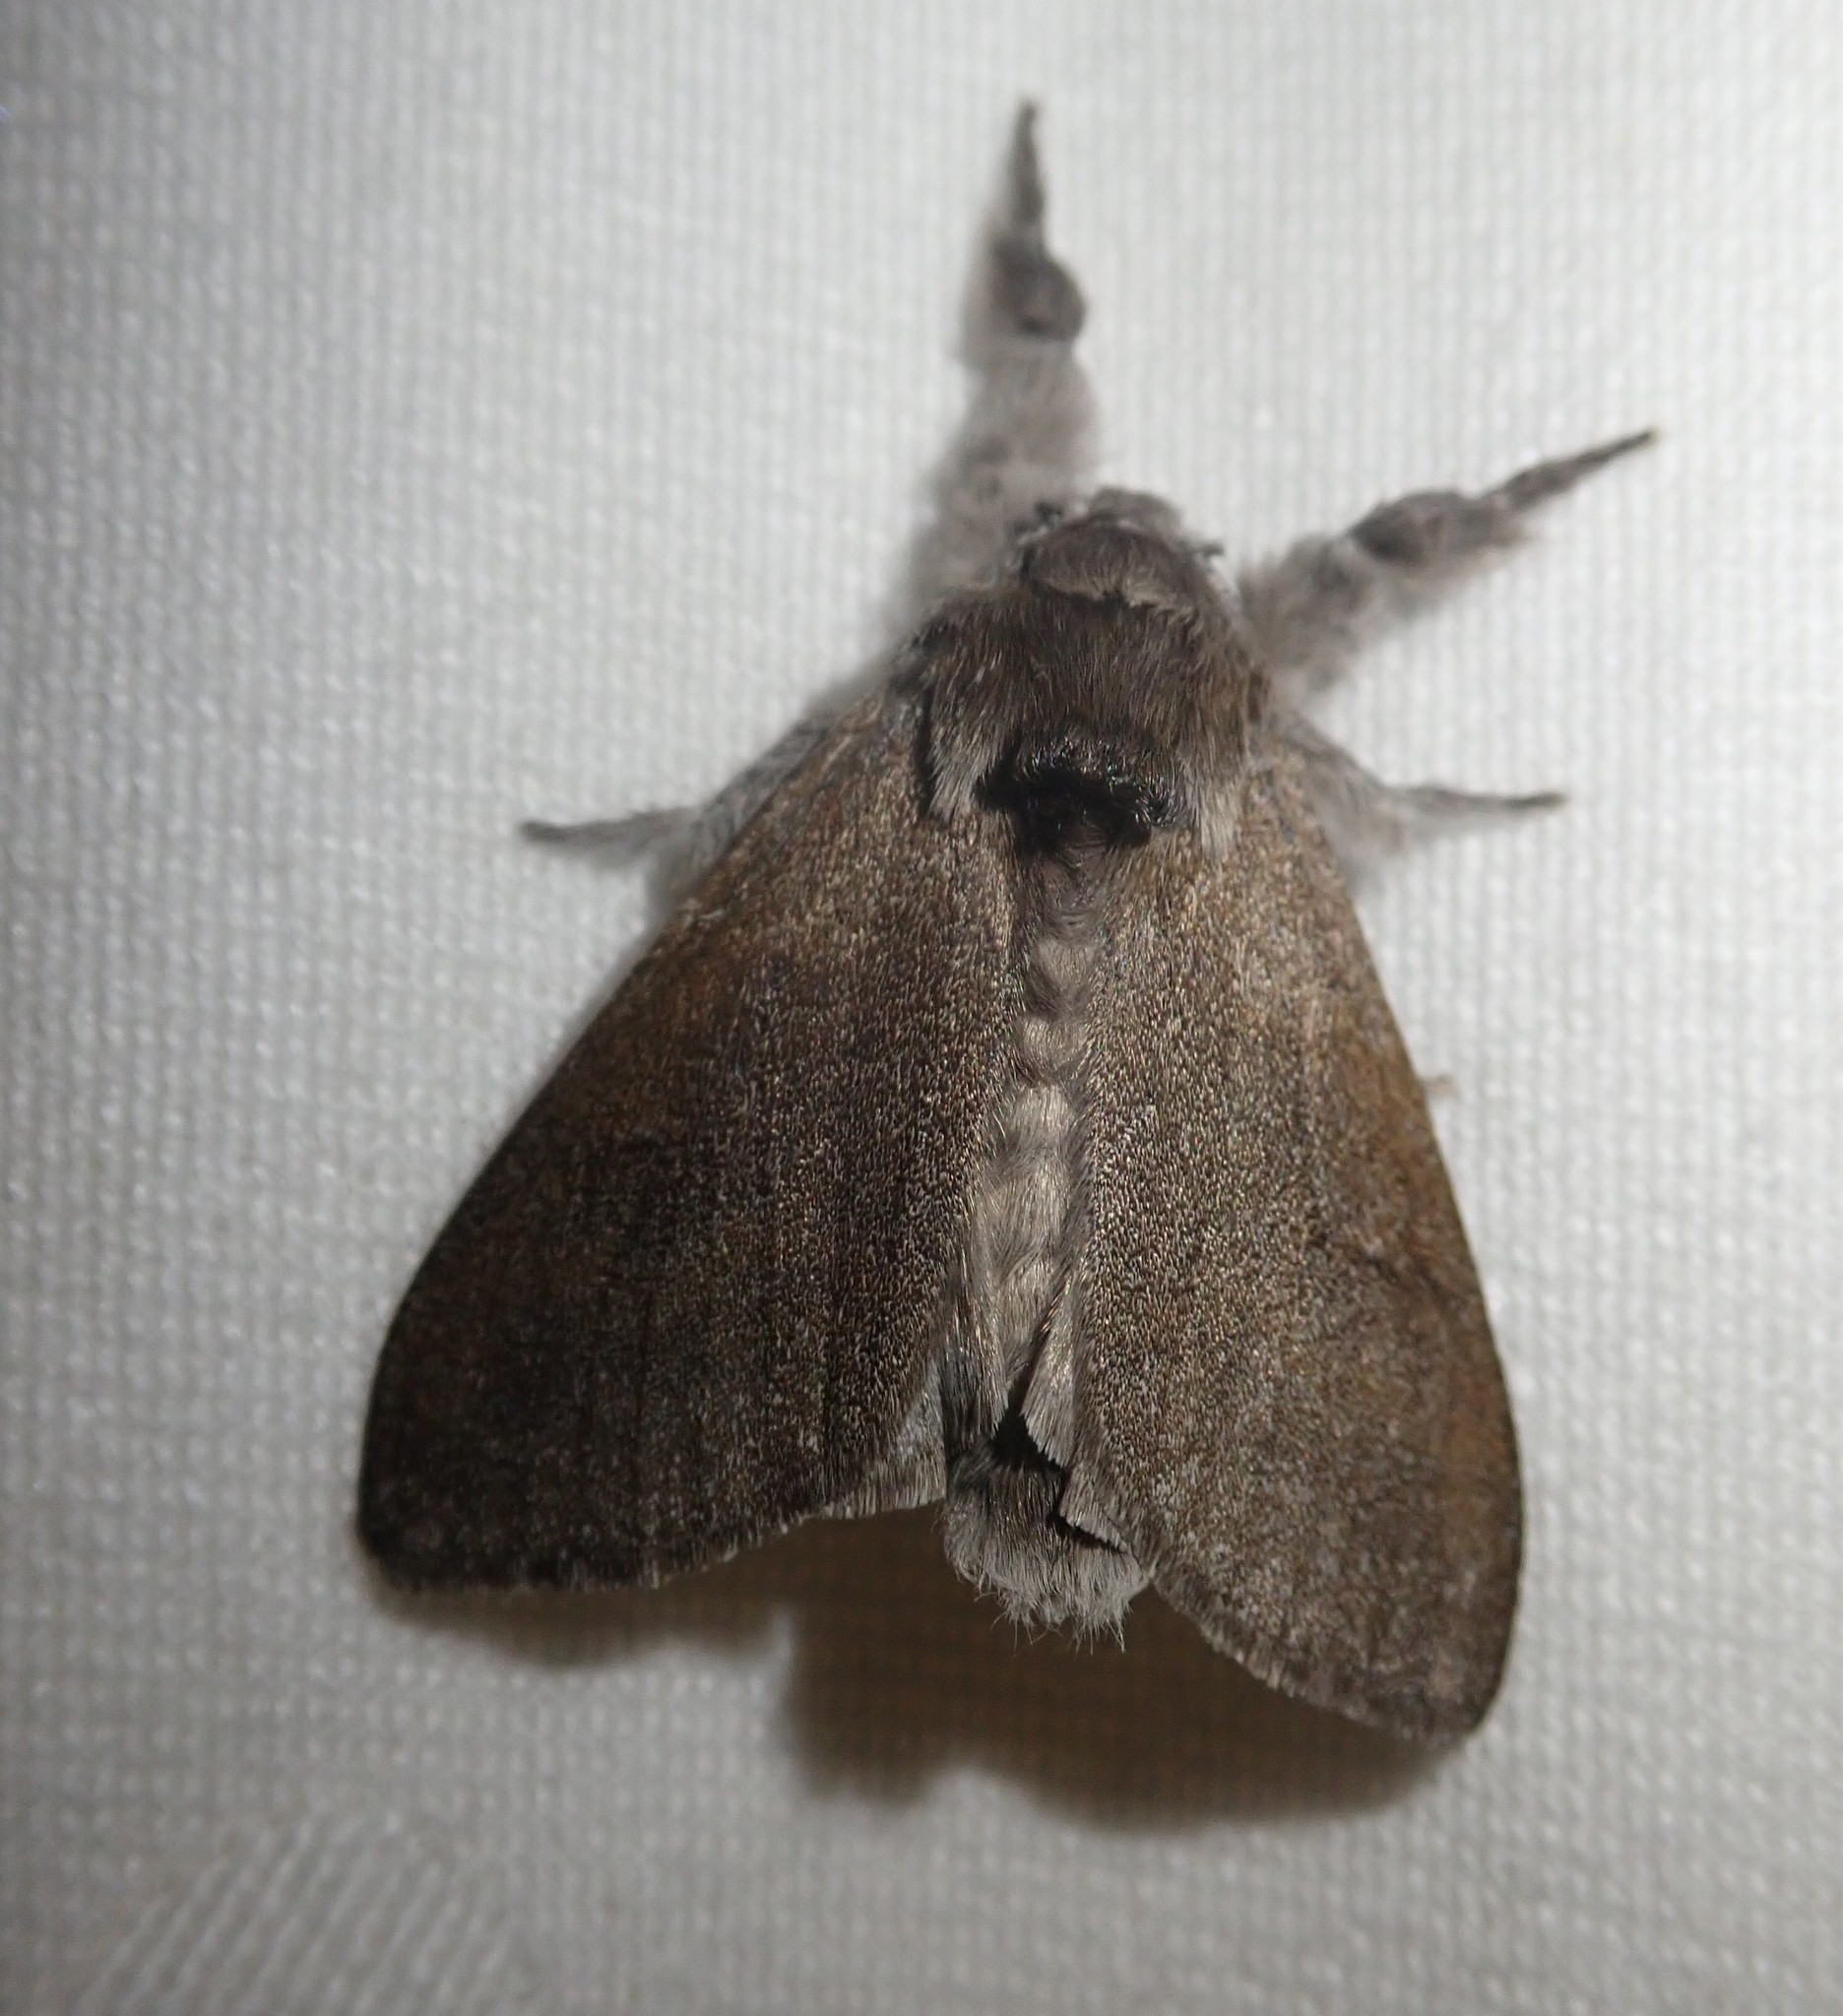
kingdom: Animalia
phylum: Arthropoda
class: Insecta
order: Lepidoptera
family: Erebidae
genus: Calliteara
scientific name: Calliteara pudibunda
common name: Pale tussock
